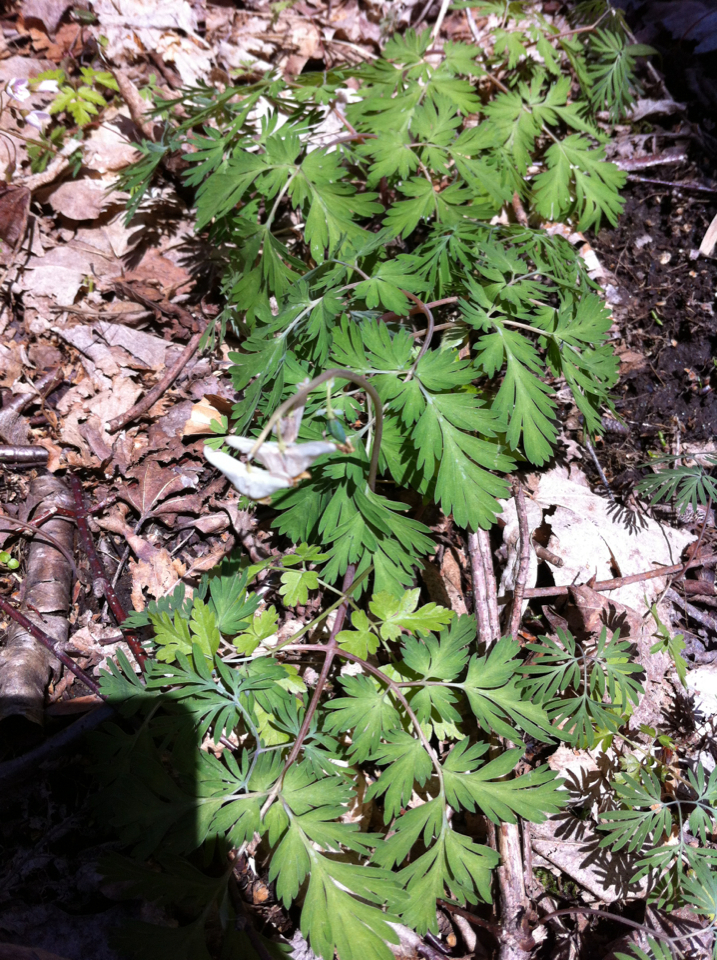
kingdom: Plantae
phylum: Tracheophyta
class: Magnoliopsida
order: Ranunculales
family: Papaveraceae
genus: Dicentra
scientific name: Dicentra cucullaria
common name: Dutchman's breeches
